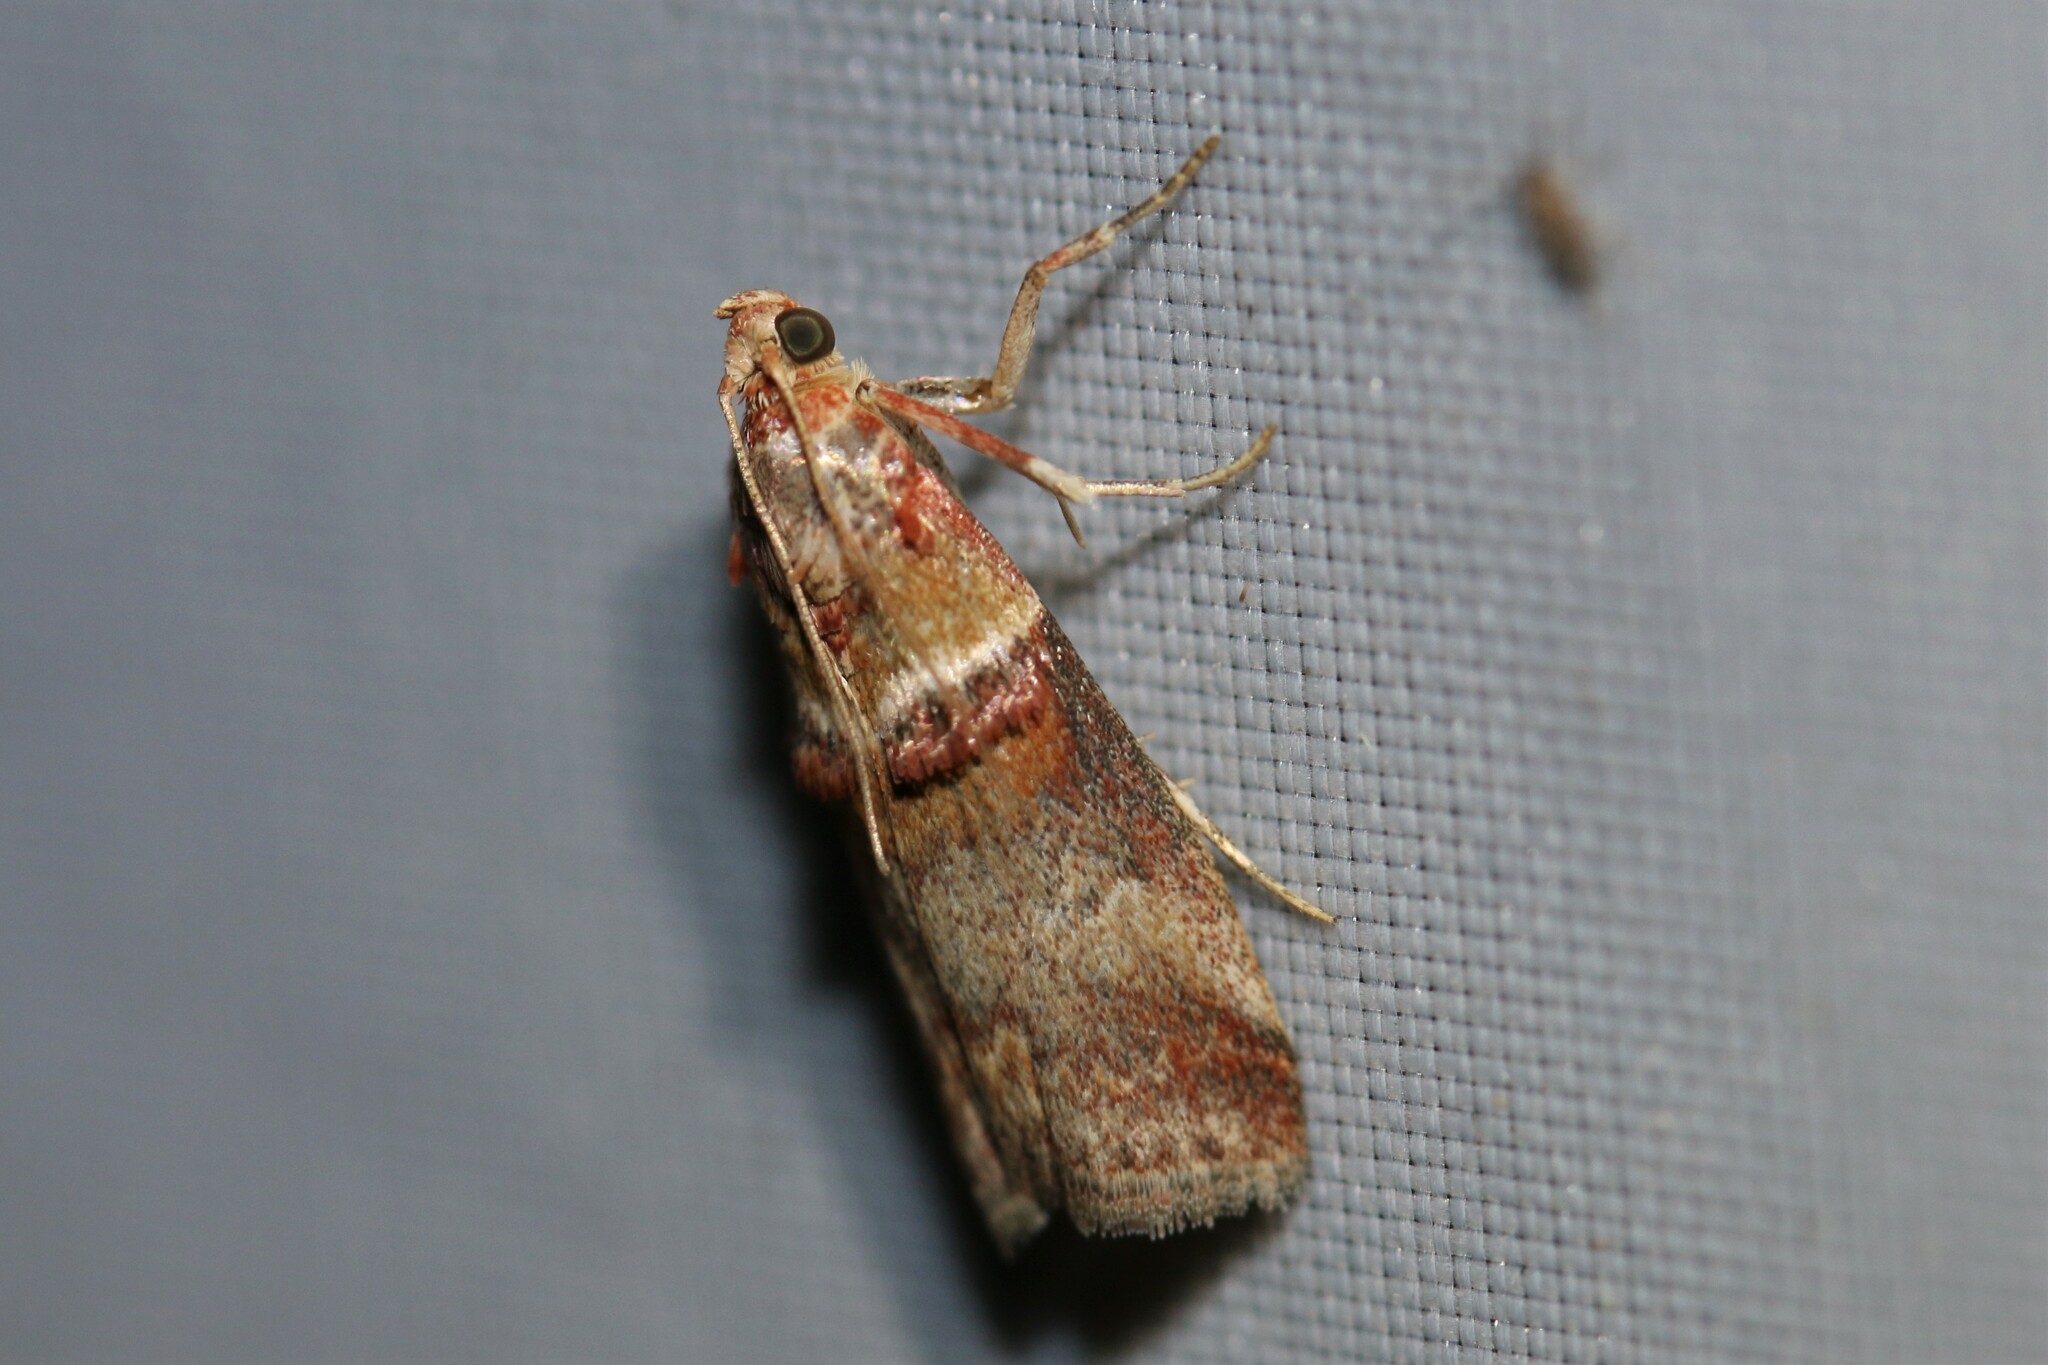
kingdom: Animalia
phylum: Arthropoda
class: Insecta
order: Lepidoptera
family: Pyralidae
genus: Acrobasis
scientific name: Acrobasis tumidana
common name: Scarce oak knot-horn
